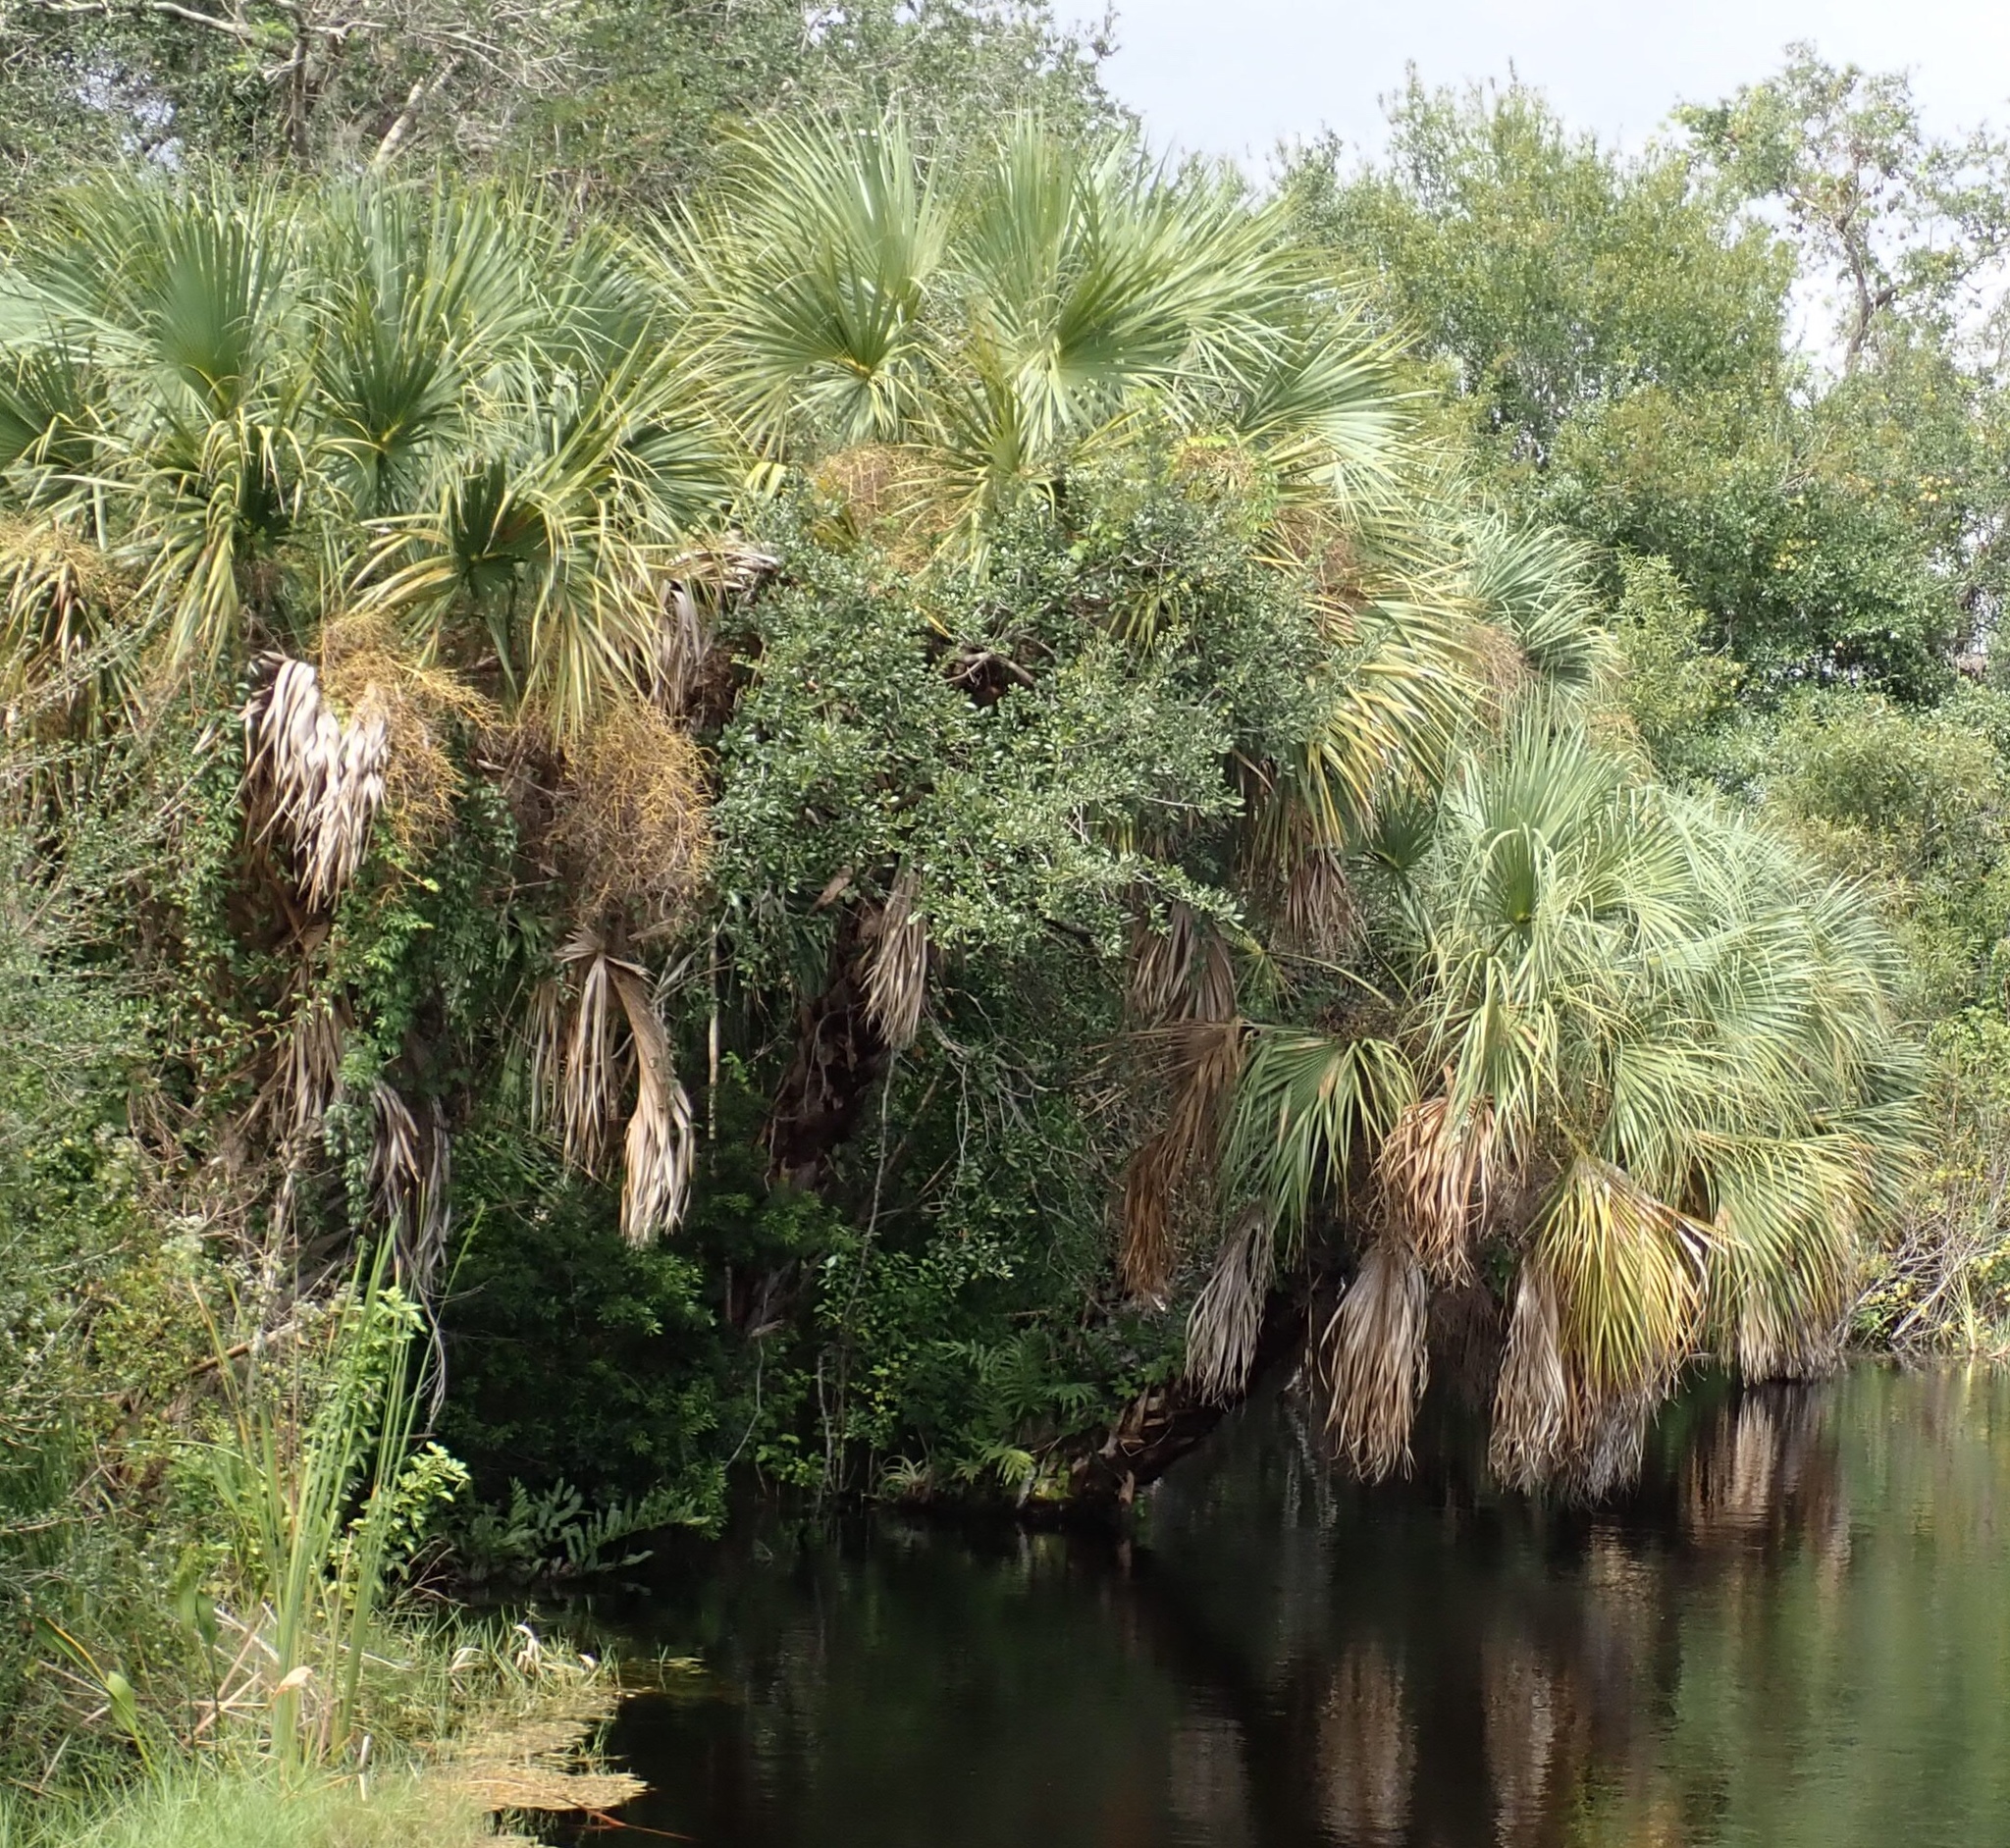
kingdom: Plantae
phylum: Tracheophyta
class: Liliopsida
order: Arecales
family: Arecaceae
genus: Sabal
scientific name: Sabal palmetto
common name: Blue palmetto
